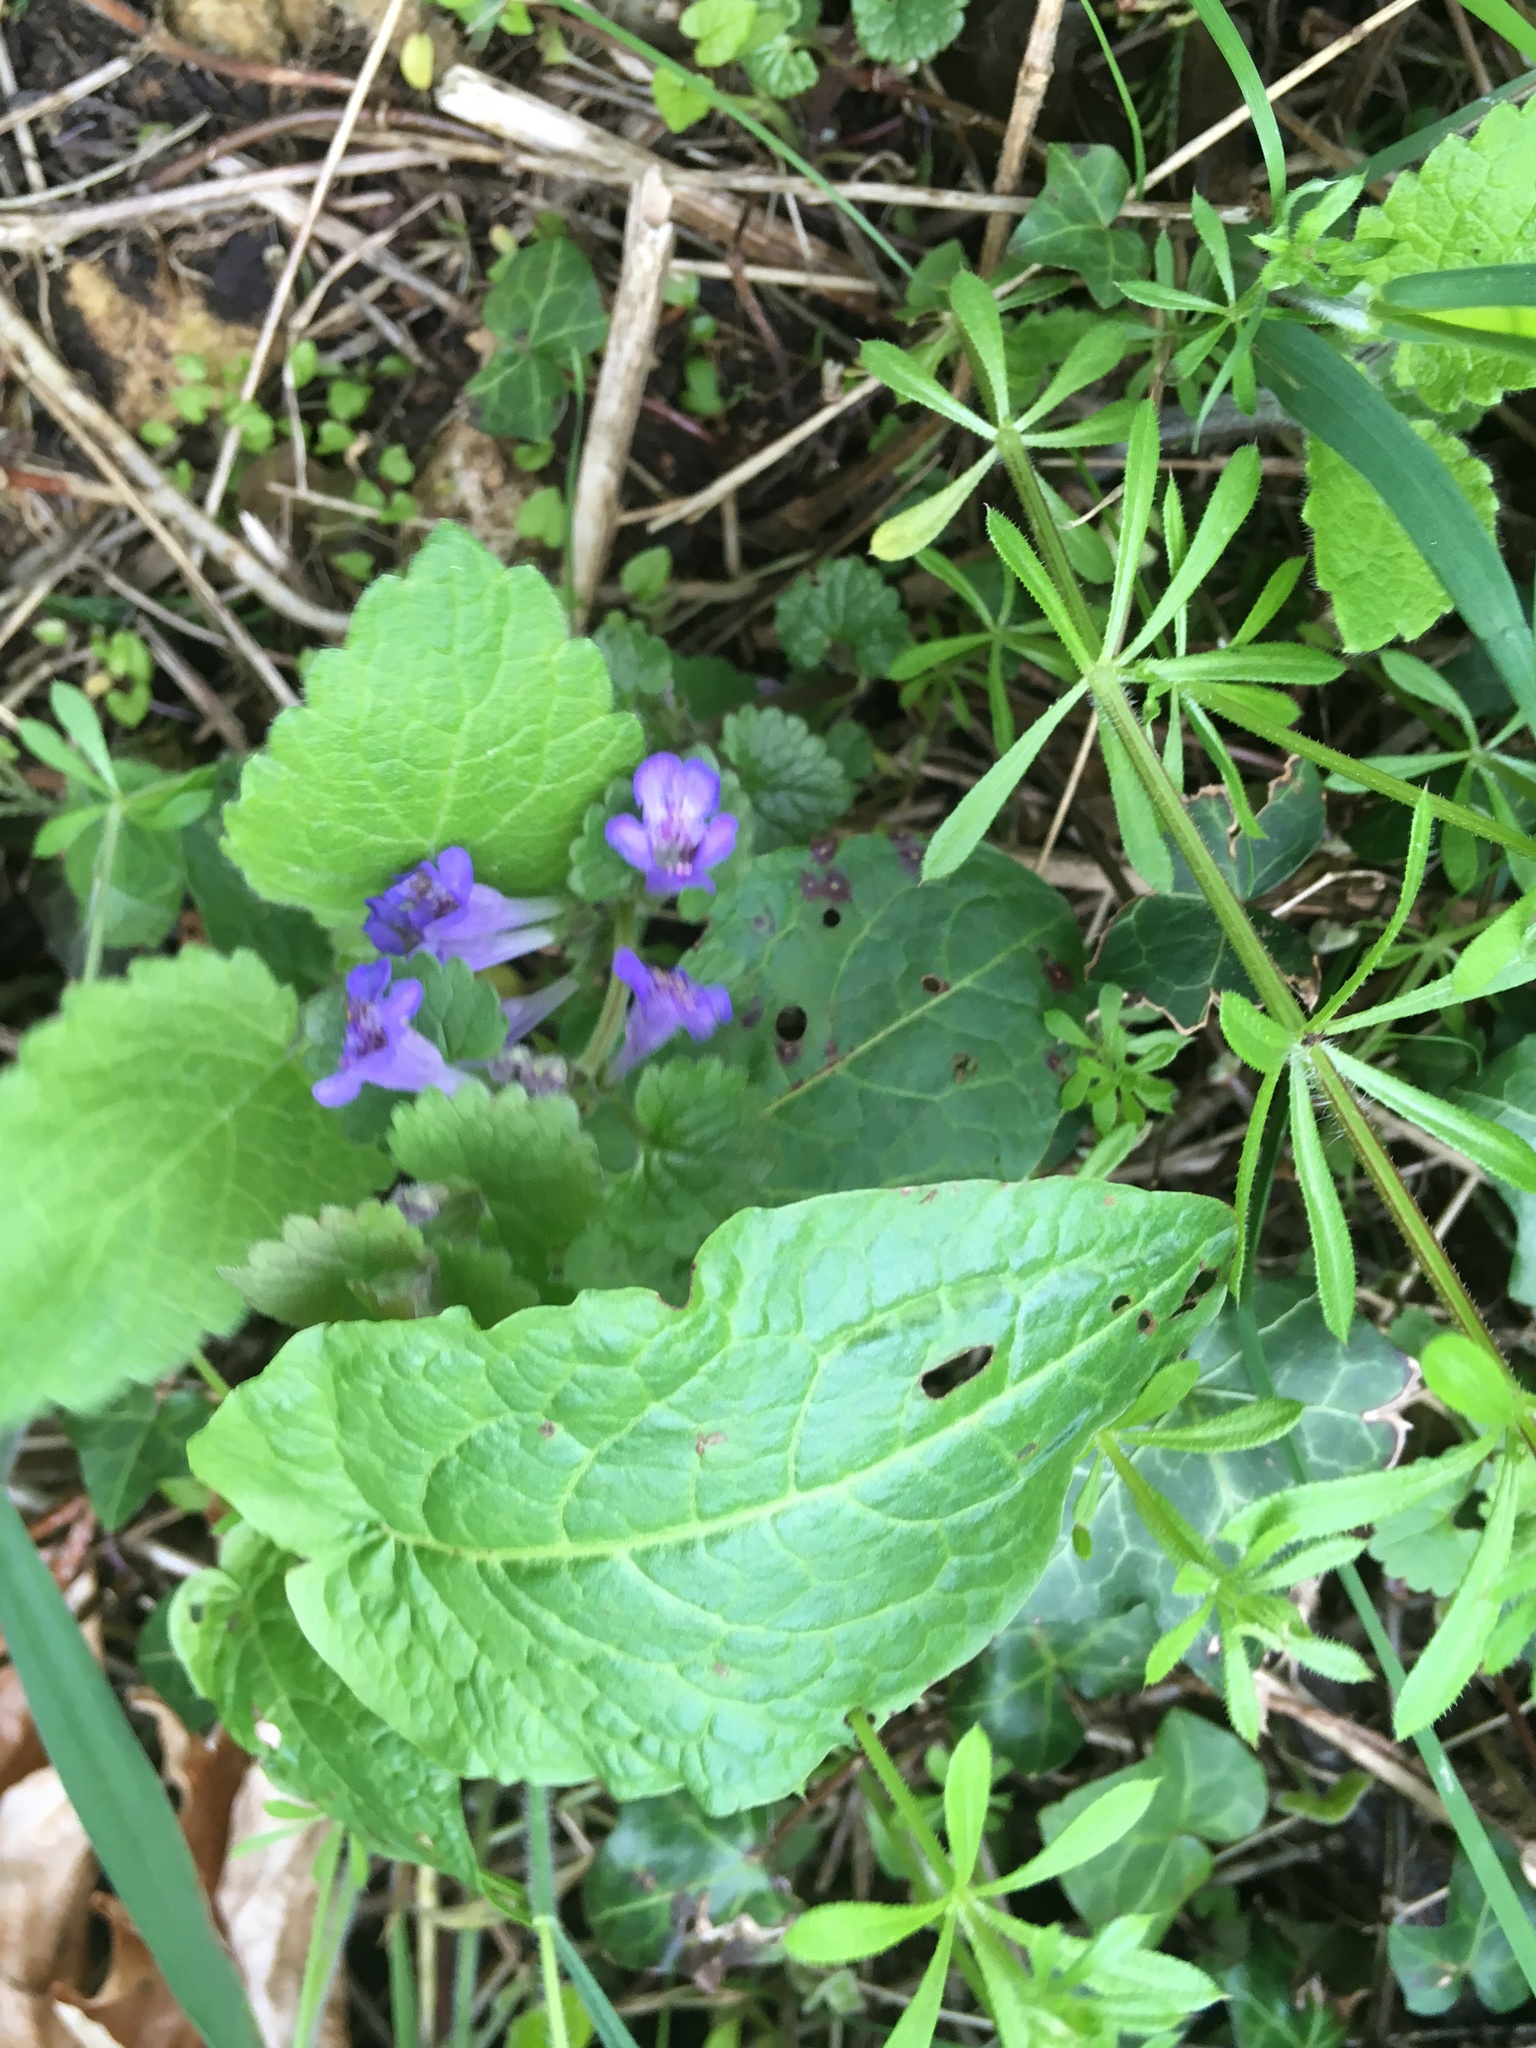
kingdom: Plantae
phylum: Tracheophyta
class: Magnoliopsida
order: Lamiales
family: Lamiaceae
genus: Glechoma
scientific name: Glechoma hederacea
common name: Ground ivy
